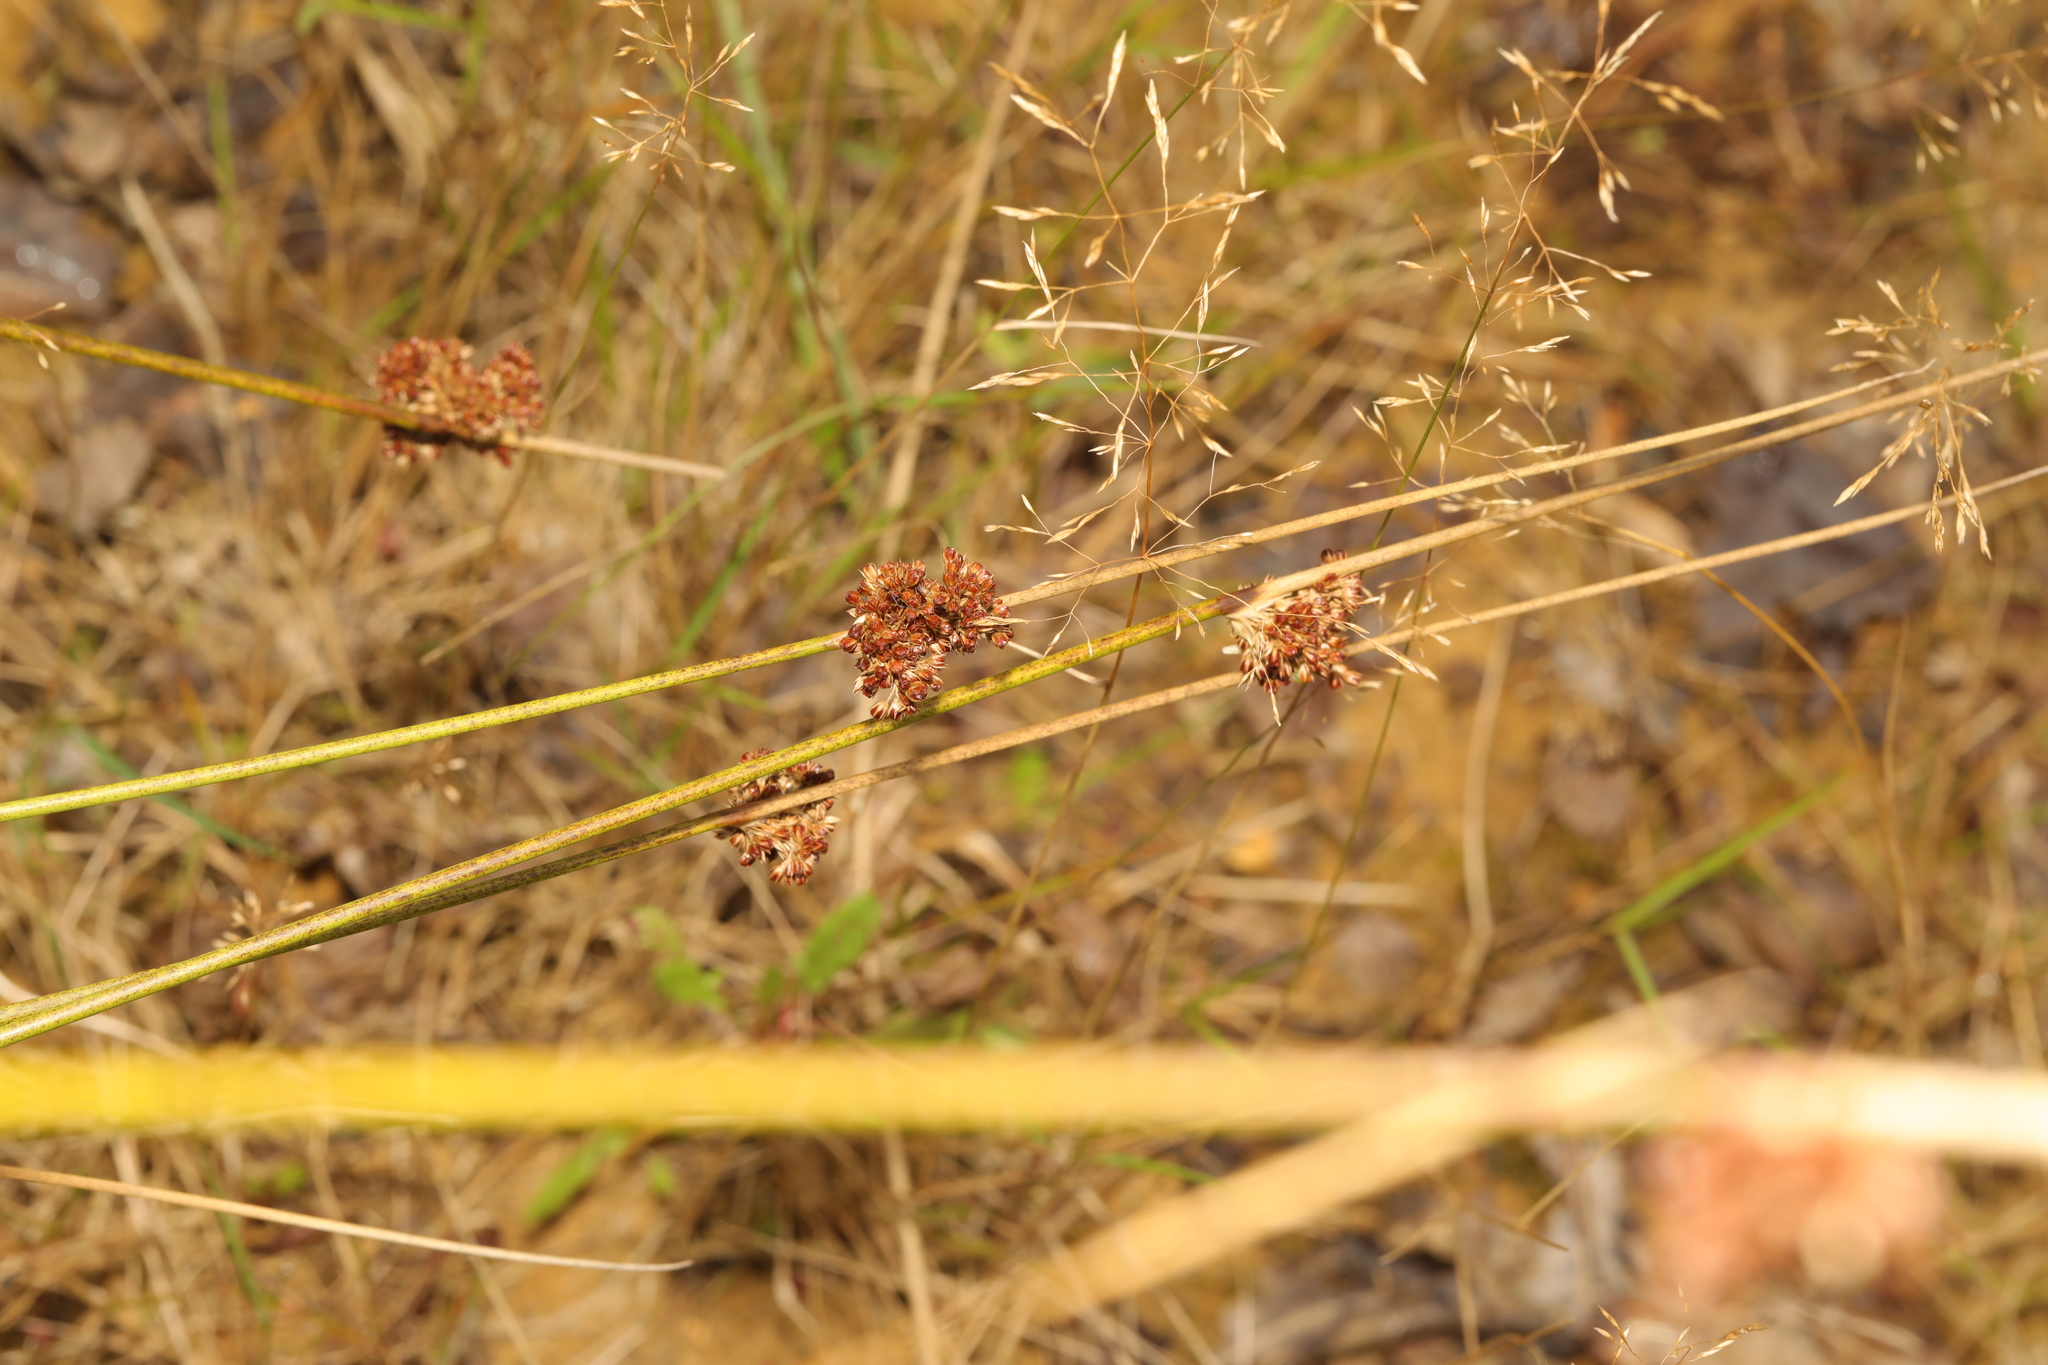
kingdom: Plantae
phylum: Tracheophyta
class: Liliopsida
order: Poales
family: Juncaceae
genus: Juncus
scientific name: Juncus effusus
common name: Soft rush
